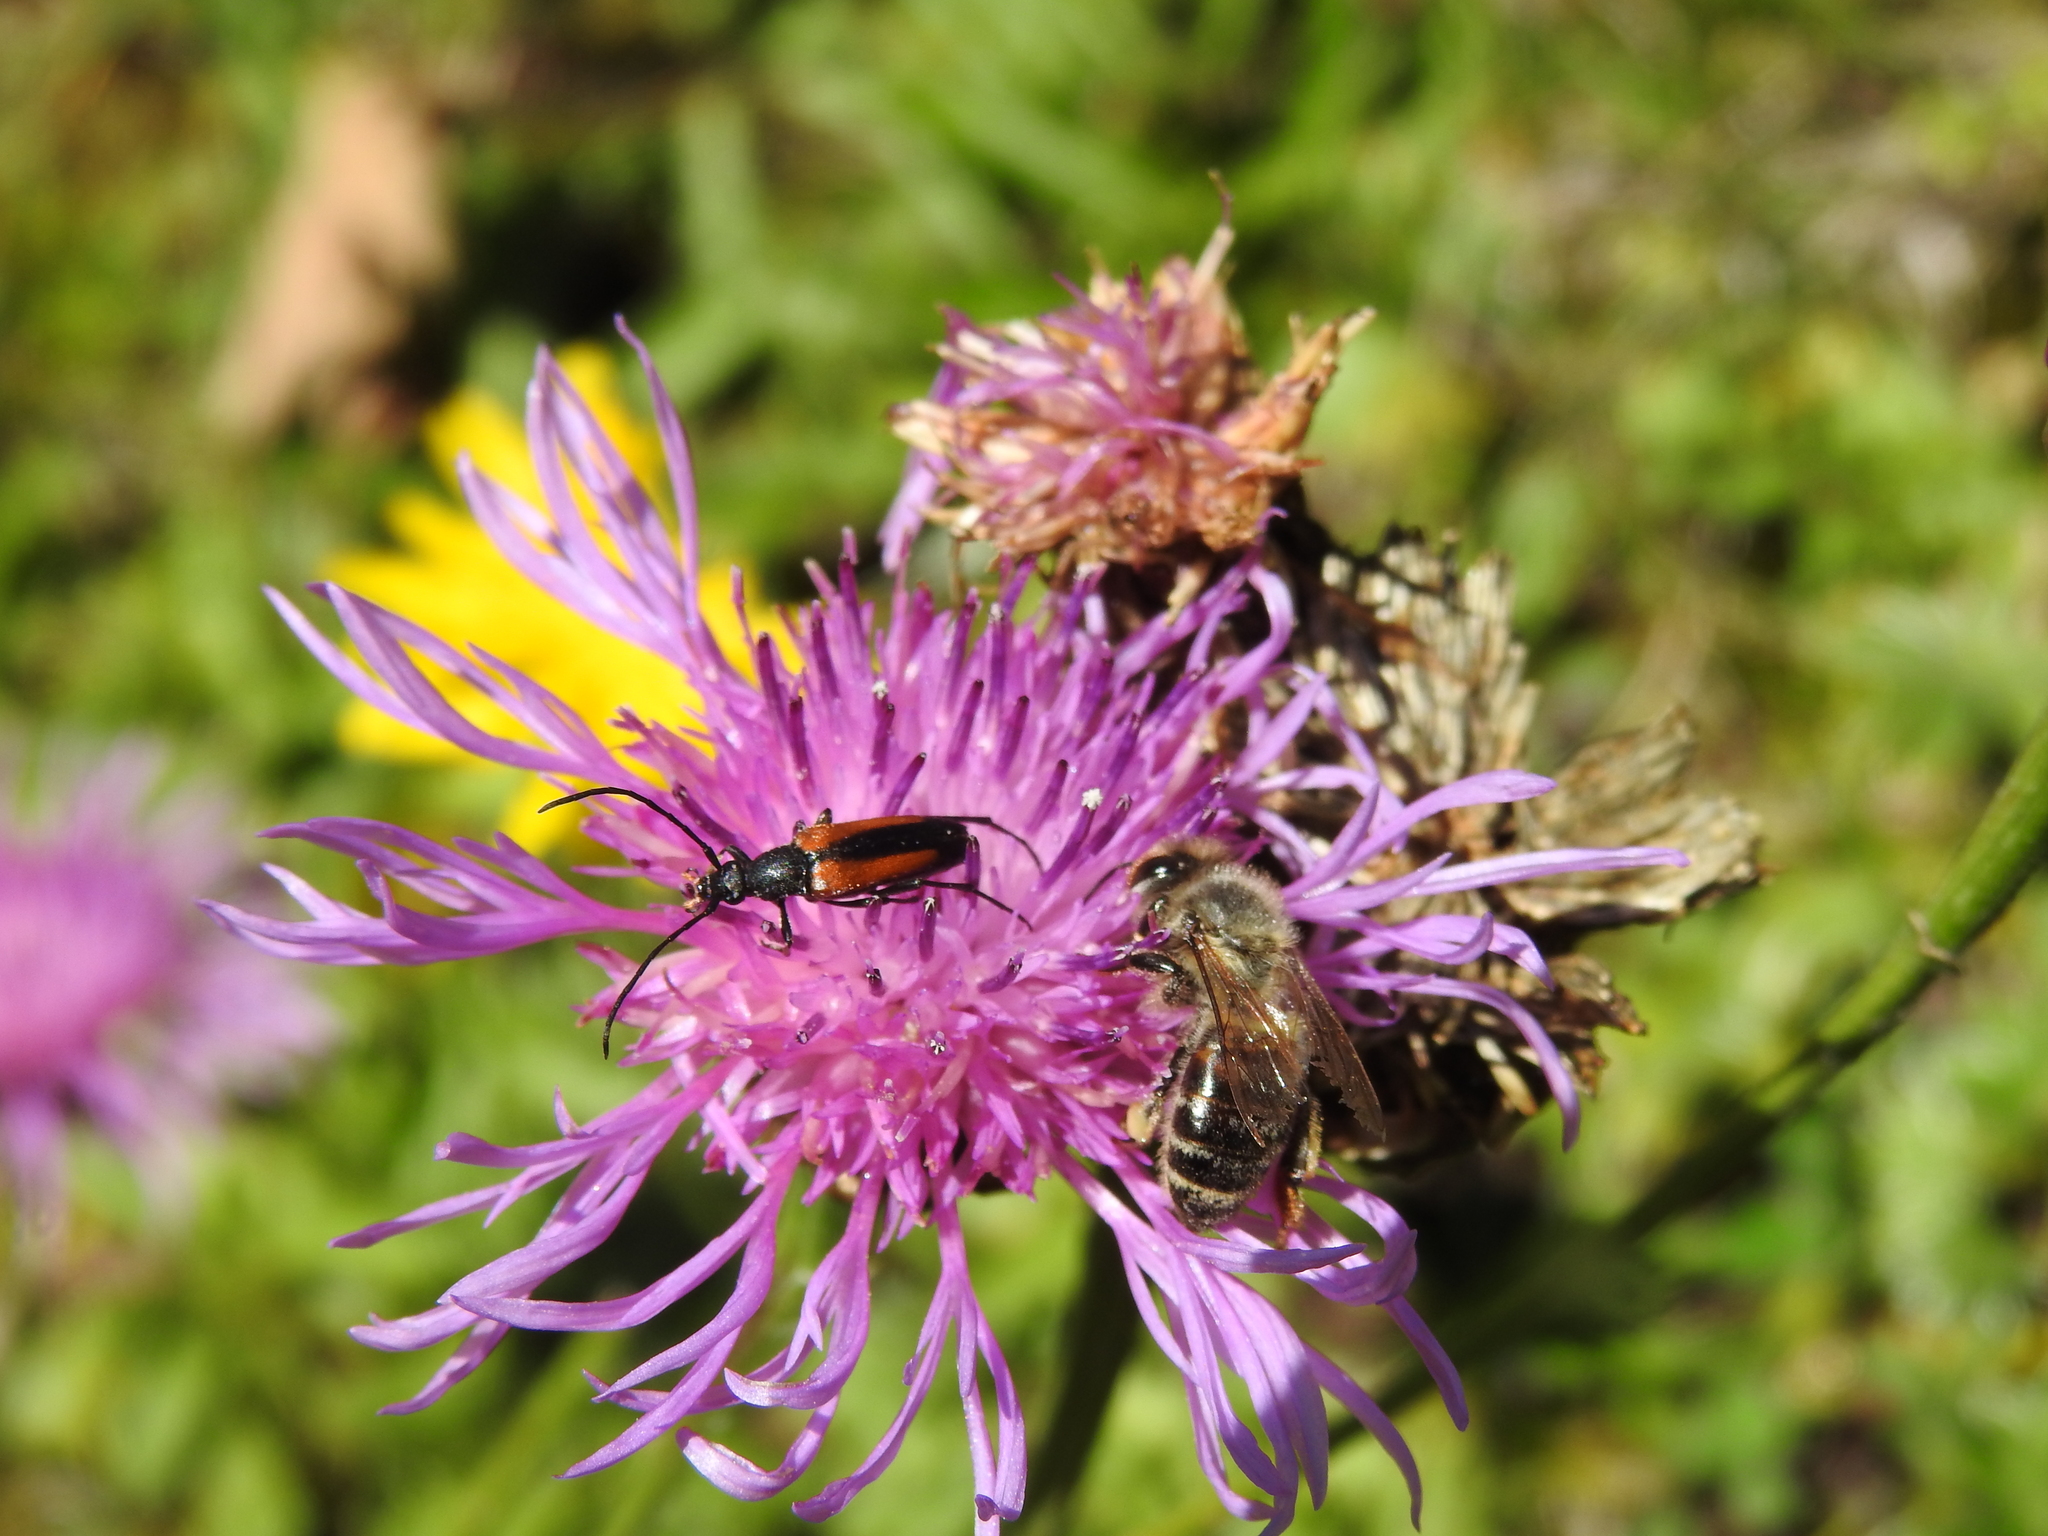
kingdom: Animalia
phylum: Arthropoda
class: Insecta
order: Hymenoptera
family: Apidae
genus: Apis
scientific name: Apis mellifera
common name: Honey bee
